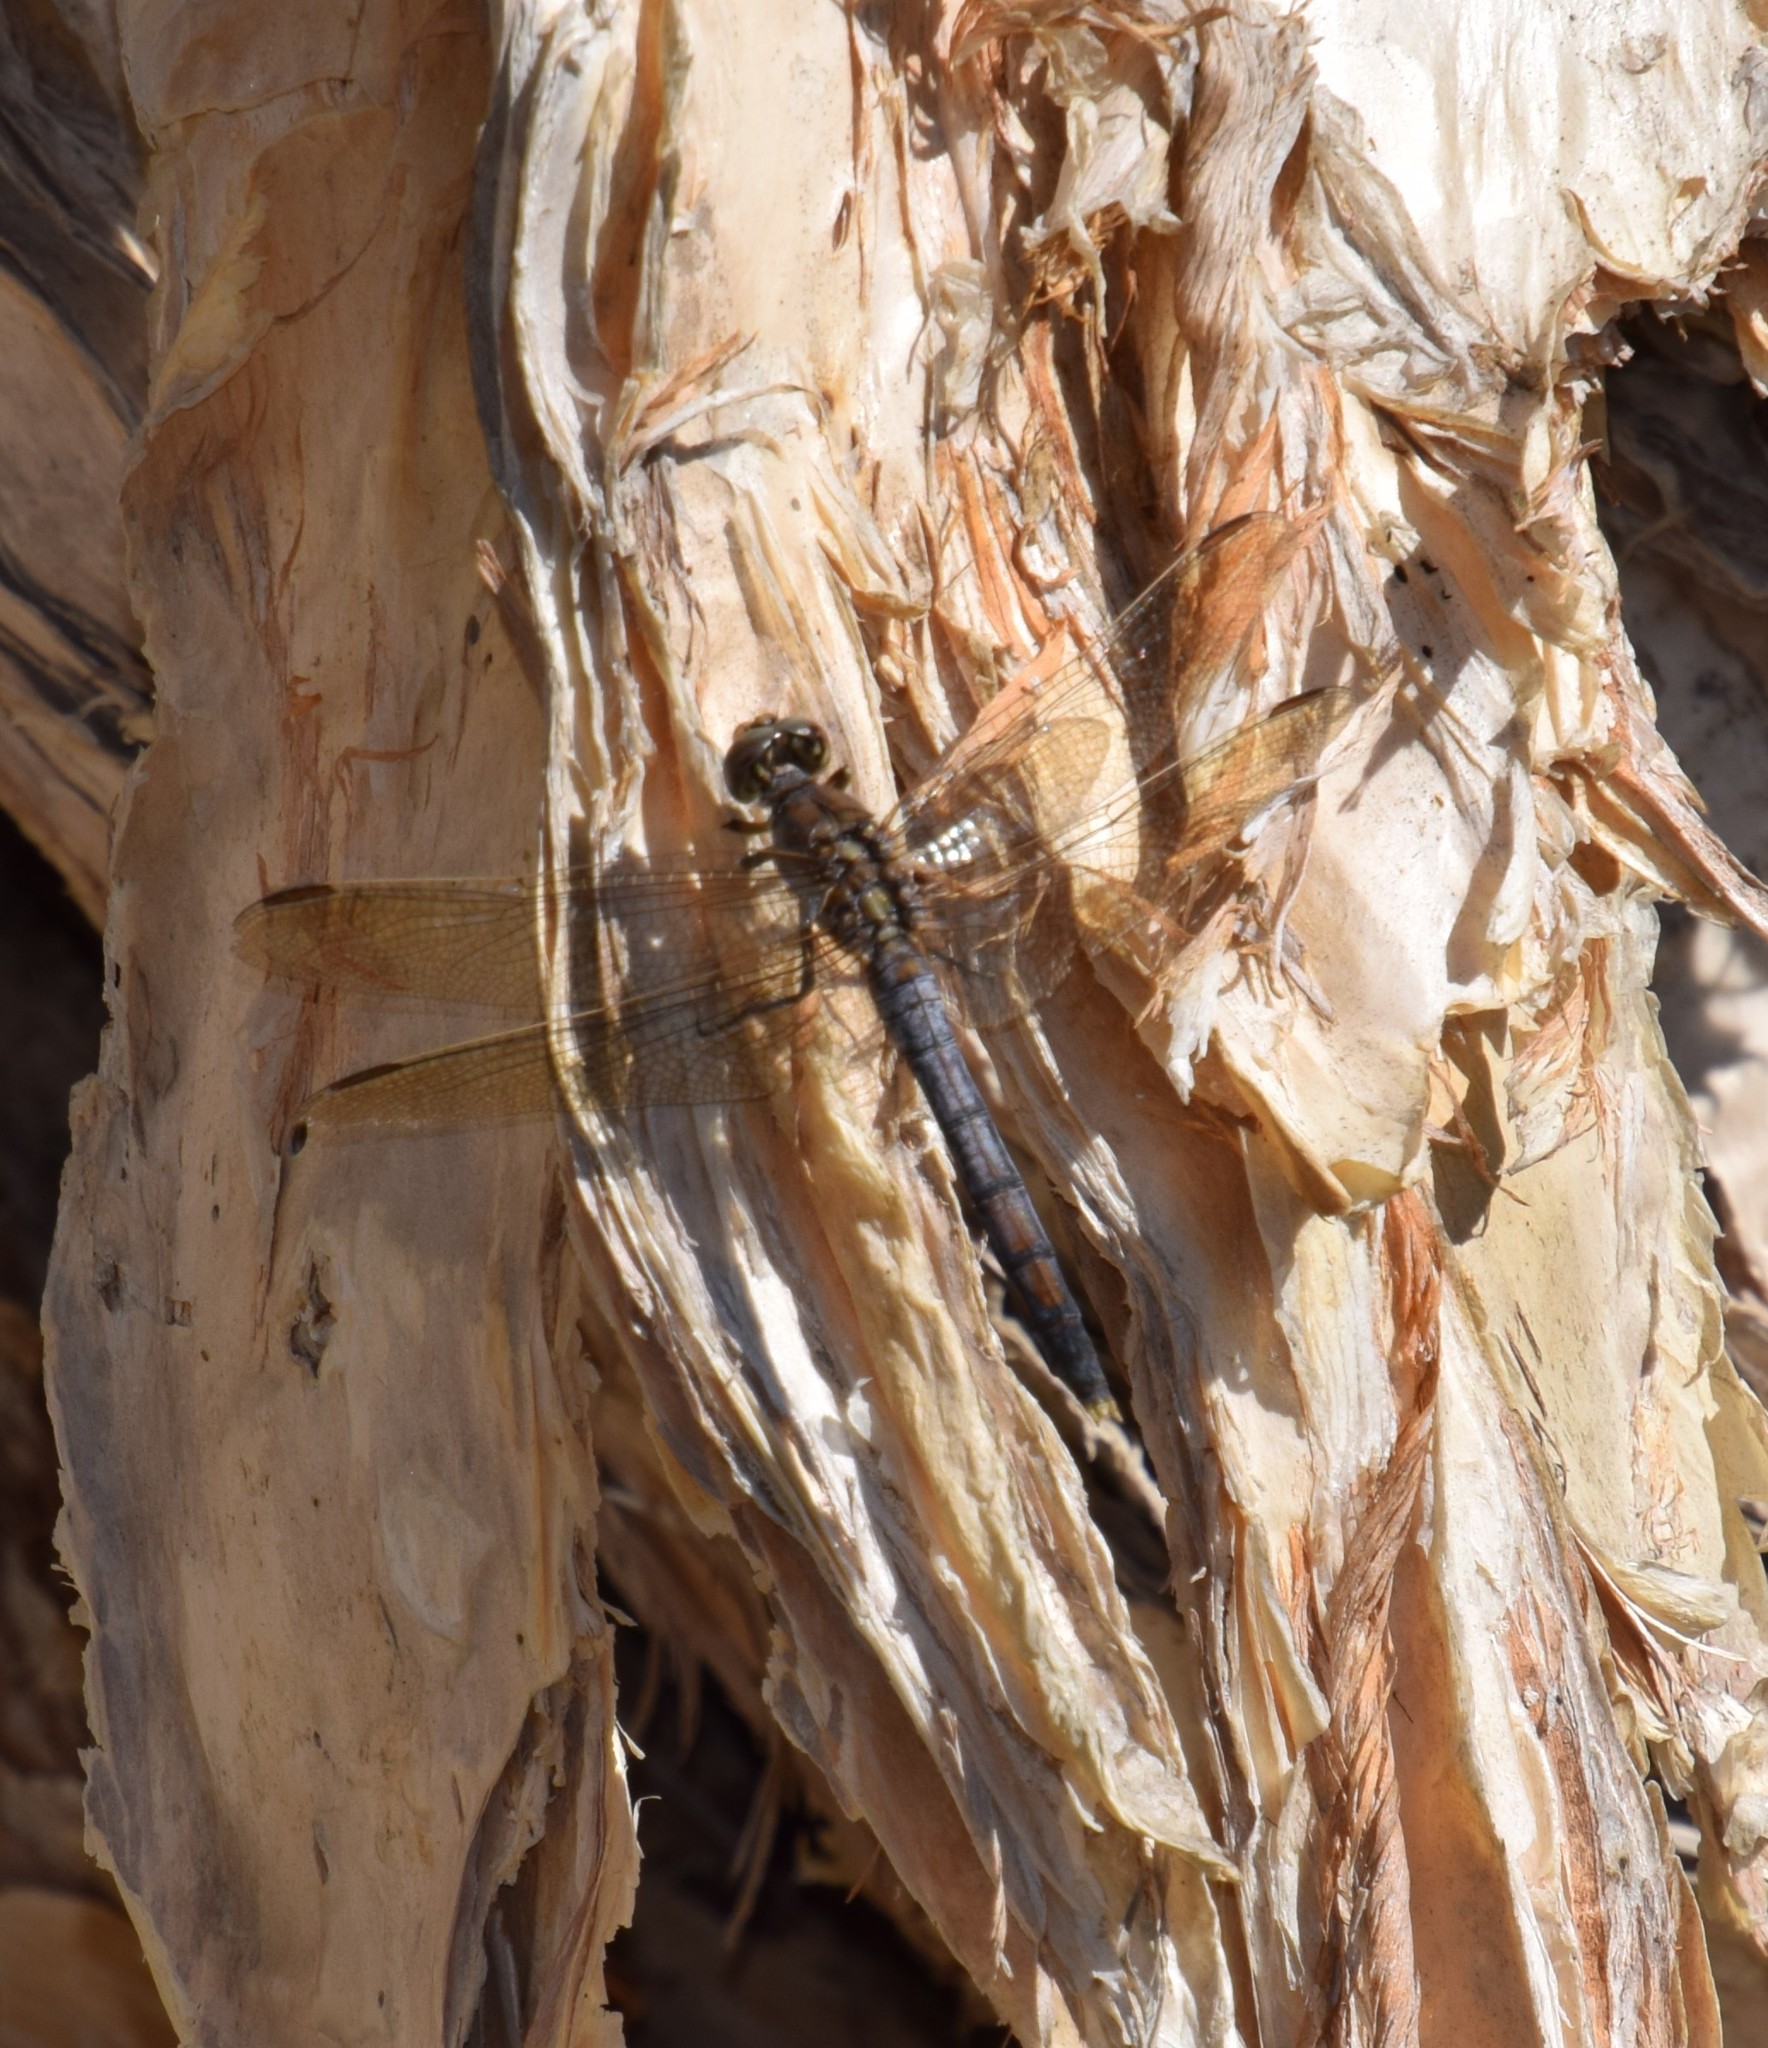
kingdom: Animalia
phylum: Arthropoda
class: Insecta
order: Odonata
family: Libellulidae
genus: Orthetrum
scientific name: Orthetrum caledonicum
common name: Blue skimmer
